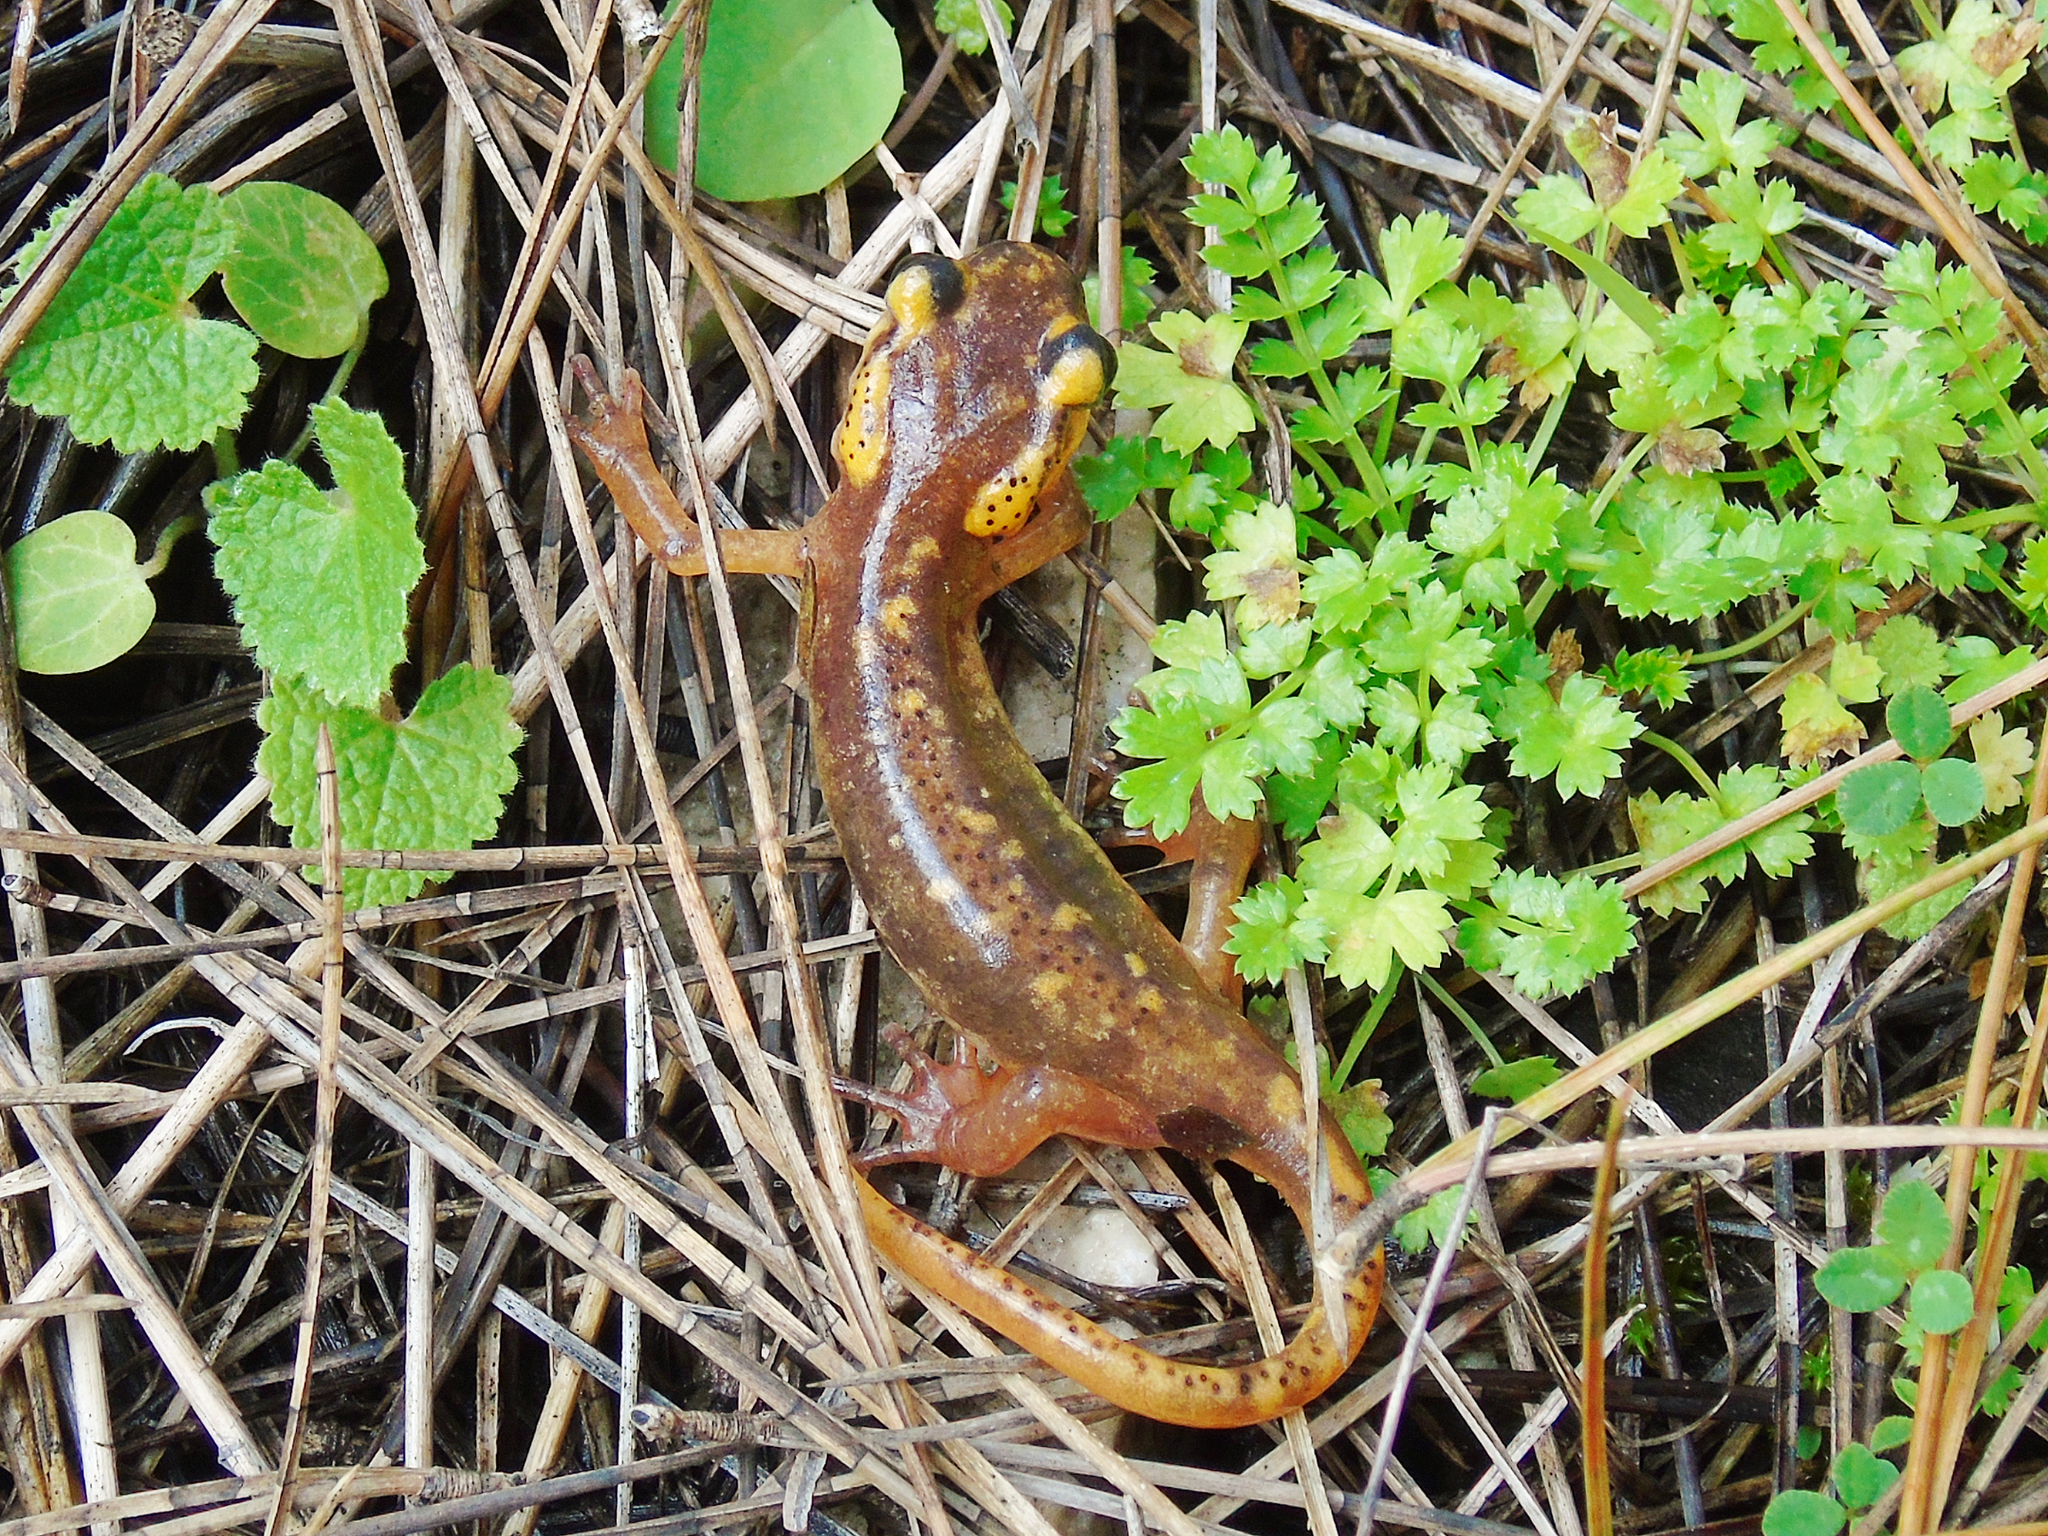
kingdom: Animalia
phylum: Chordata
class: Amphibia
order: Caudata
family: Salamandridae
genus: Lyciasalamandra
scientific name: Lyciasalamandra antalyana
